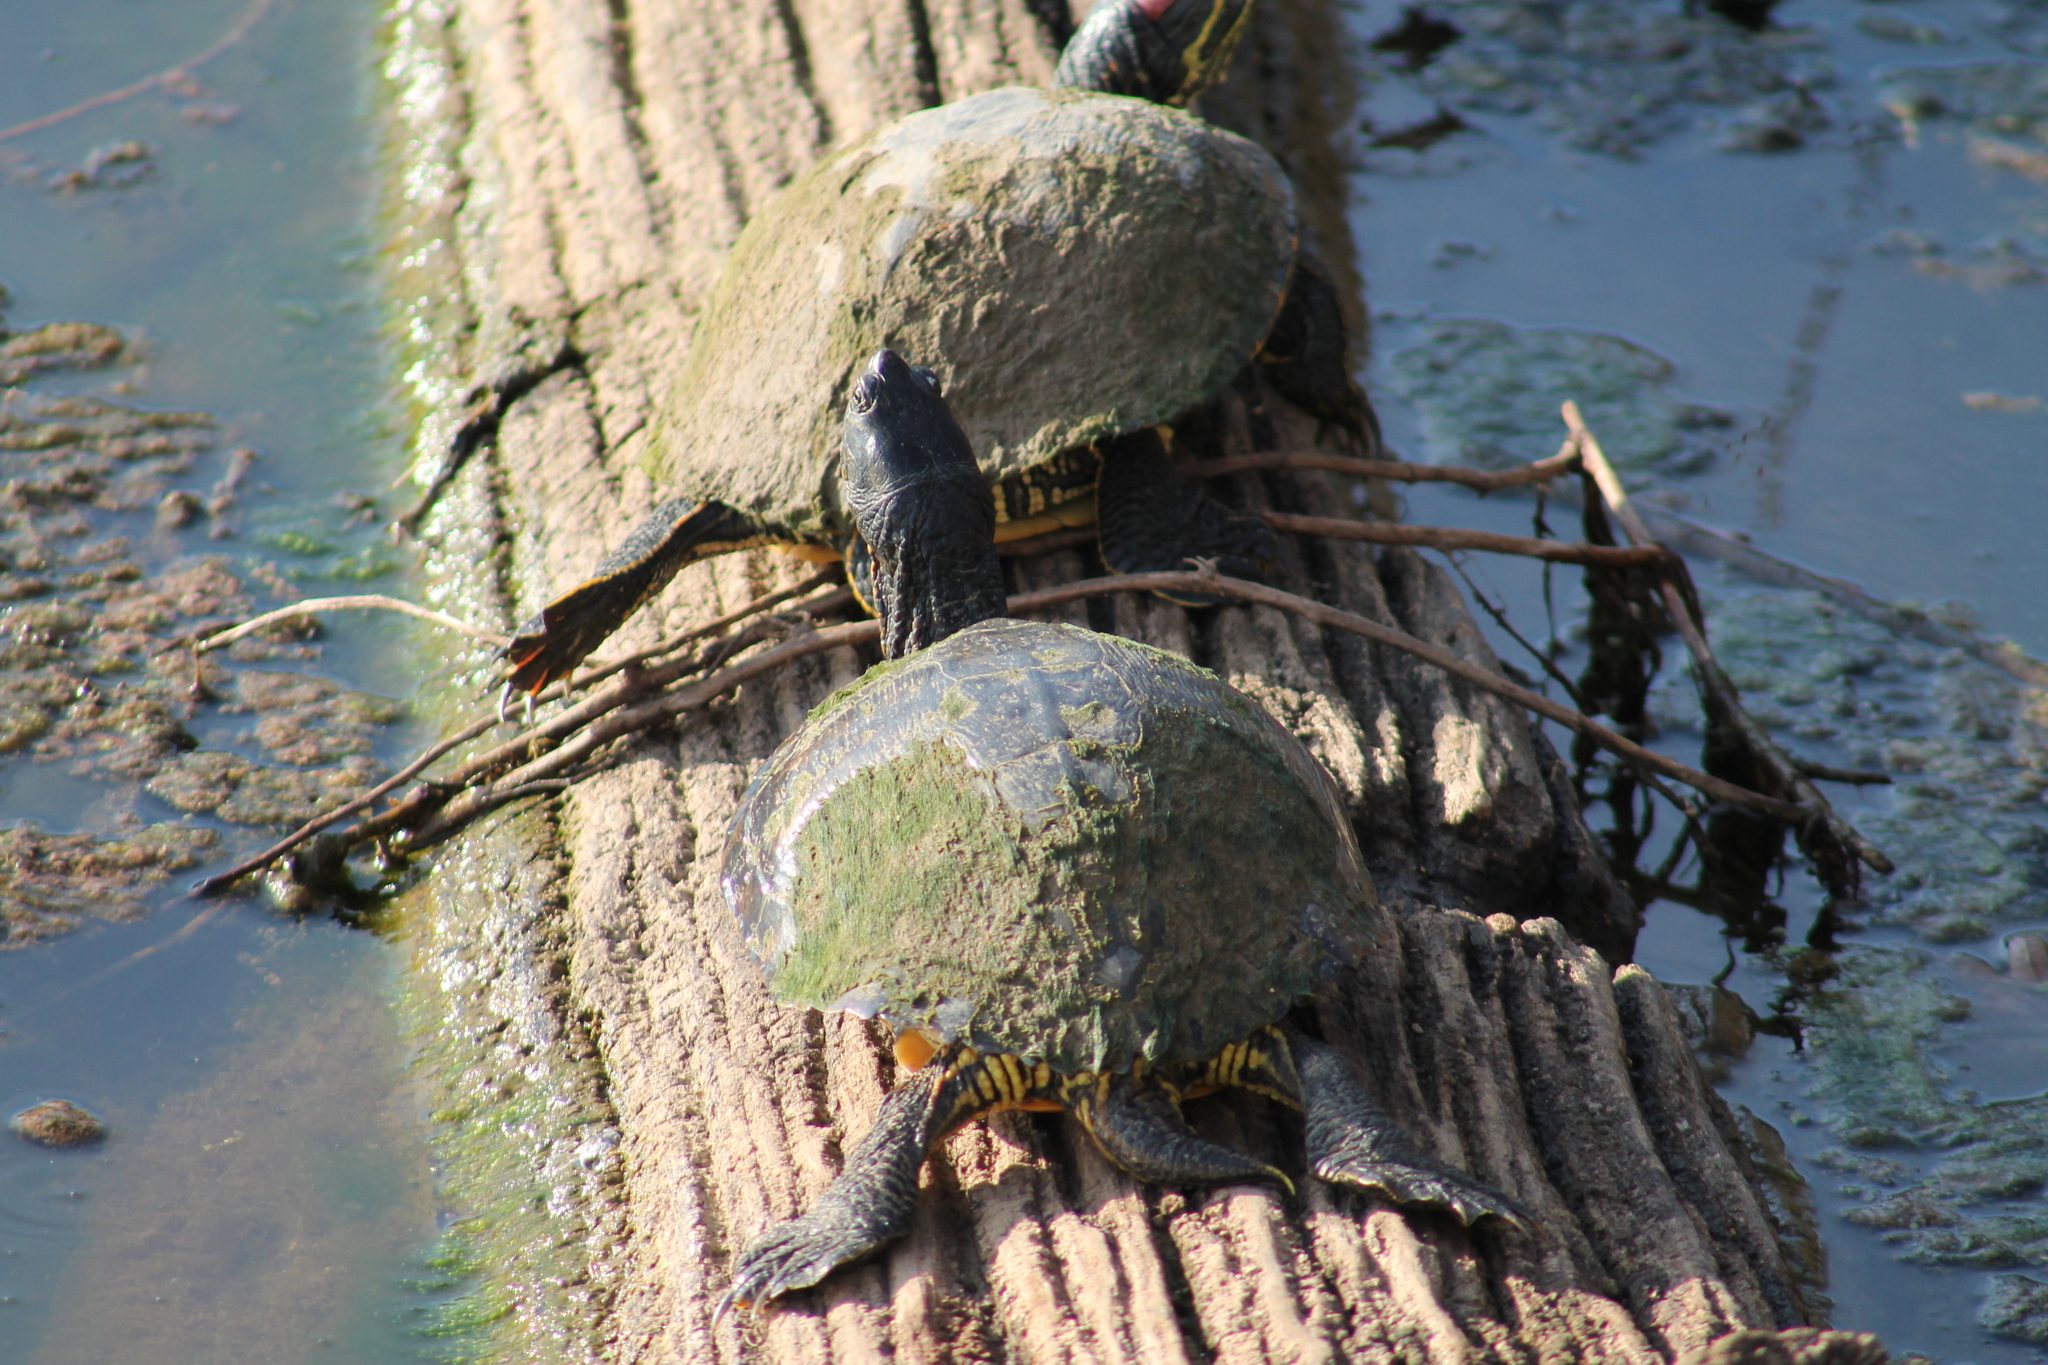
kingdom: Animalia
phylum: Chordata
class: Testudines
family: Emydidae
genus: Trachemys
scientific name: Trachemys scripta
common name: Slider
